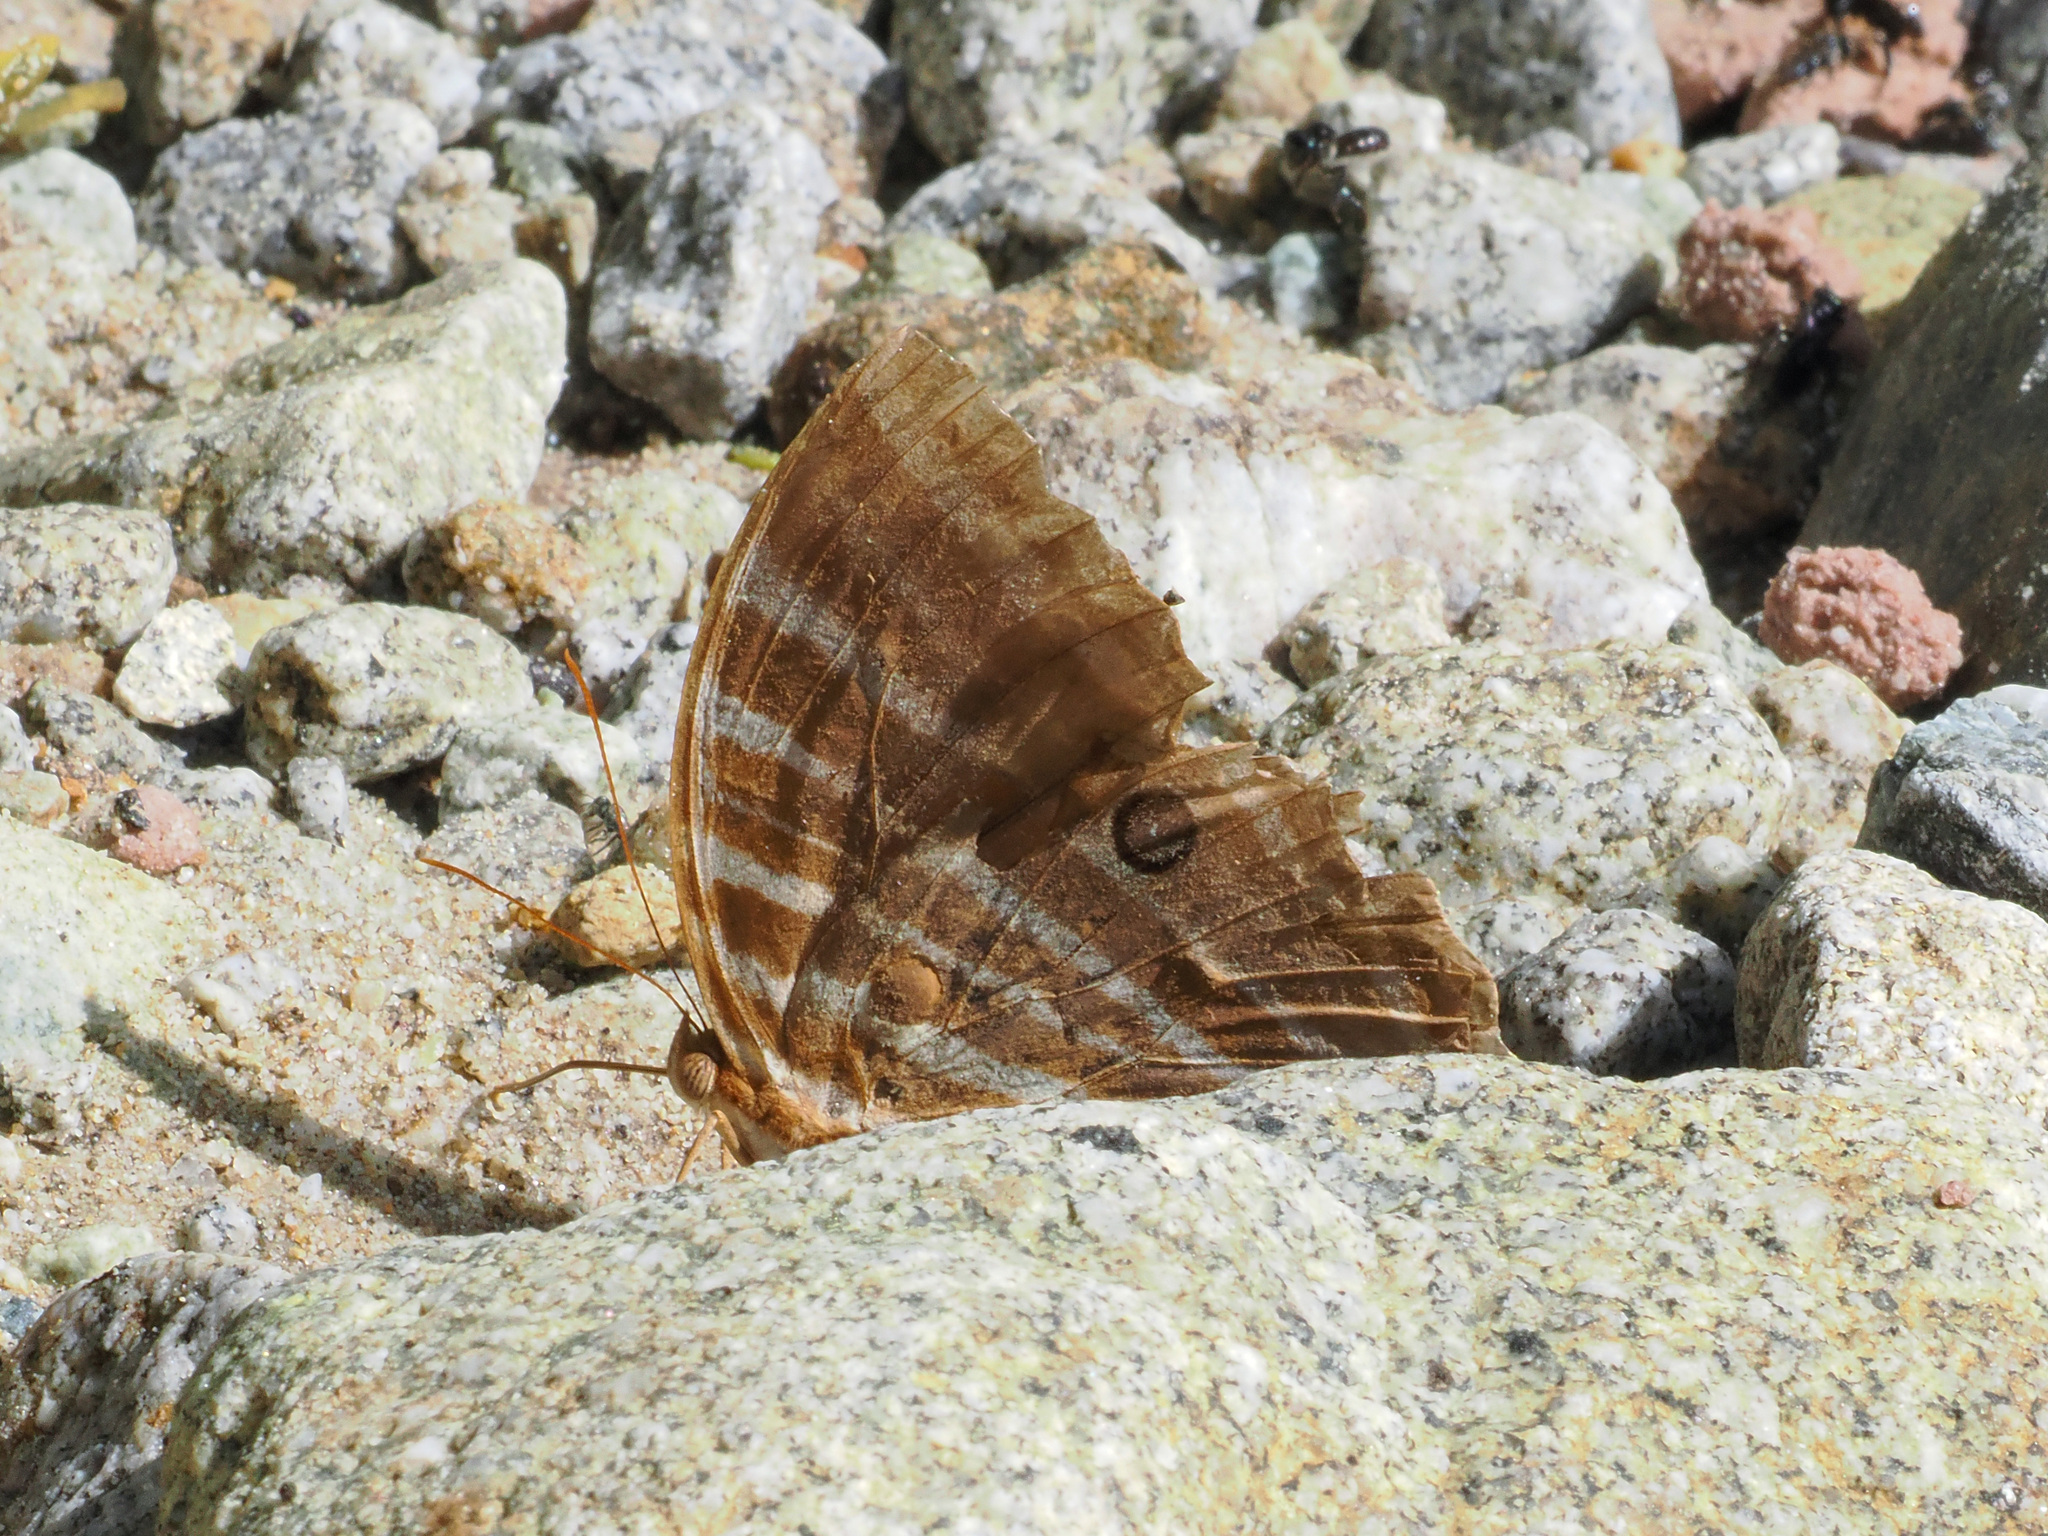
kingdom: Animalia
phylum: Arthropoda
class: Insecta
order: Lepidoptera
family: Nymphalidae
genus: Amathusia
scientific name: Amathusia virgata
